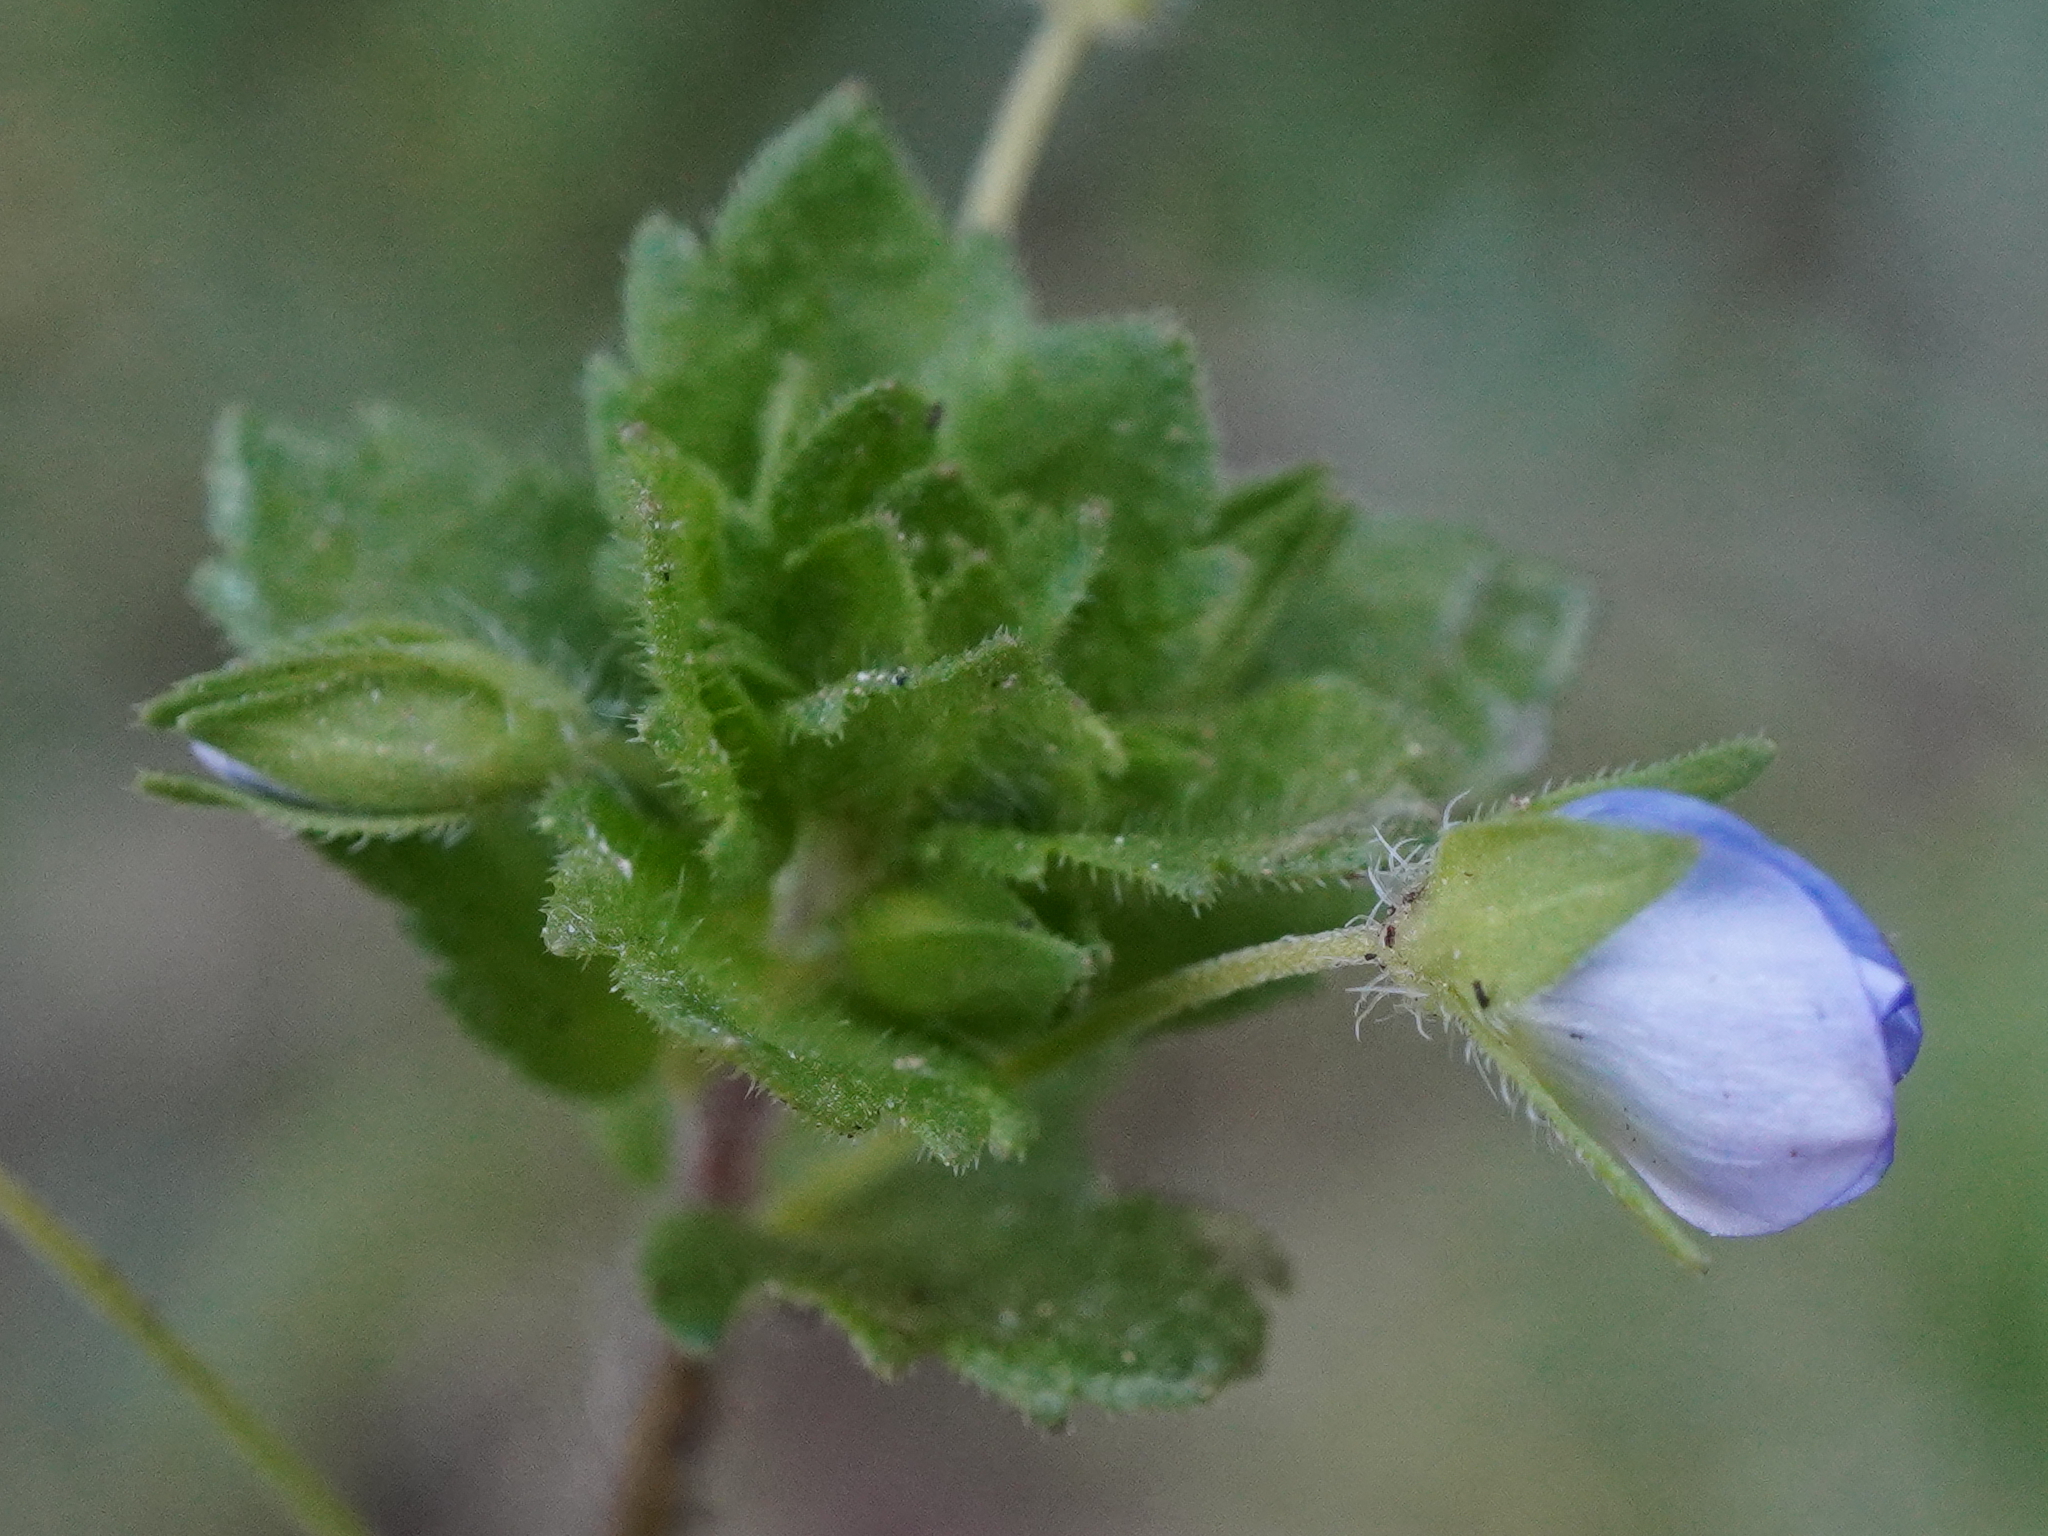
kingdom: Plantae
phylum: Tracheophyta
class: Magnoliopsida
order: Lamiales
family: Plantaginaceae
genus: Veronica
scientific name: Veronica persica
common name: Common field-speedwell
